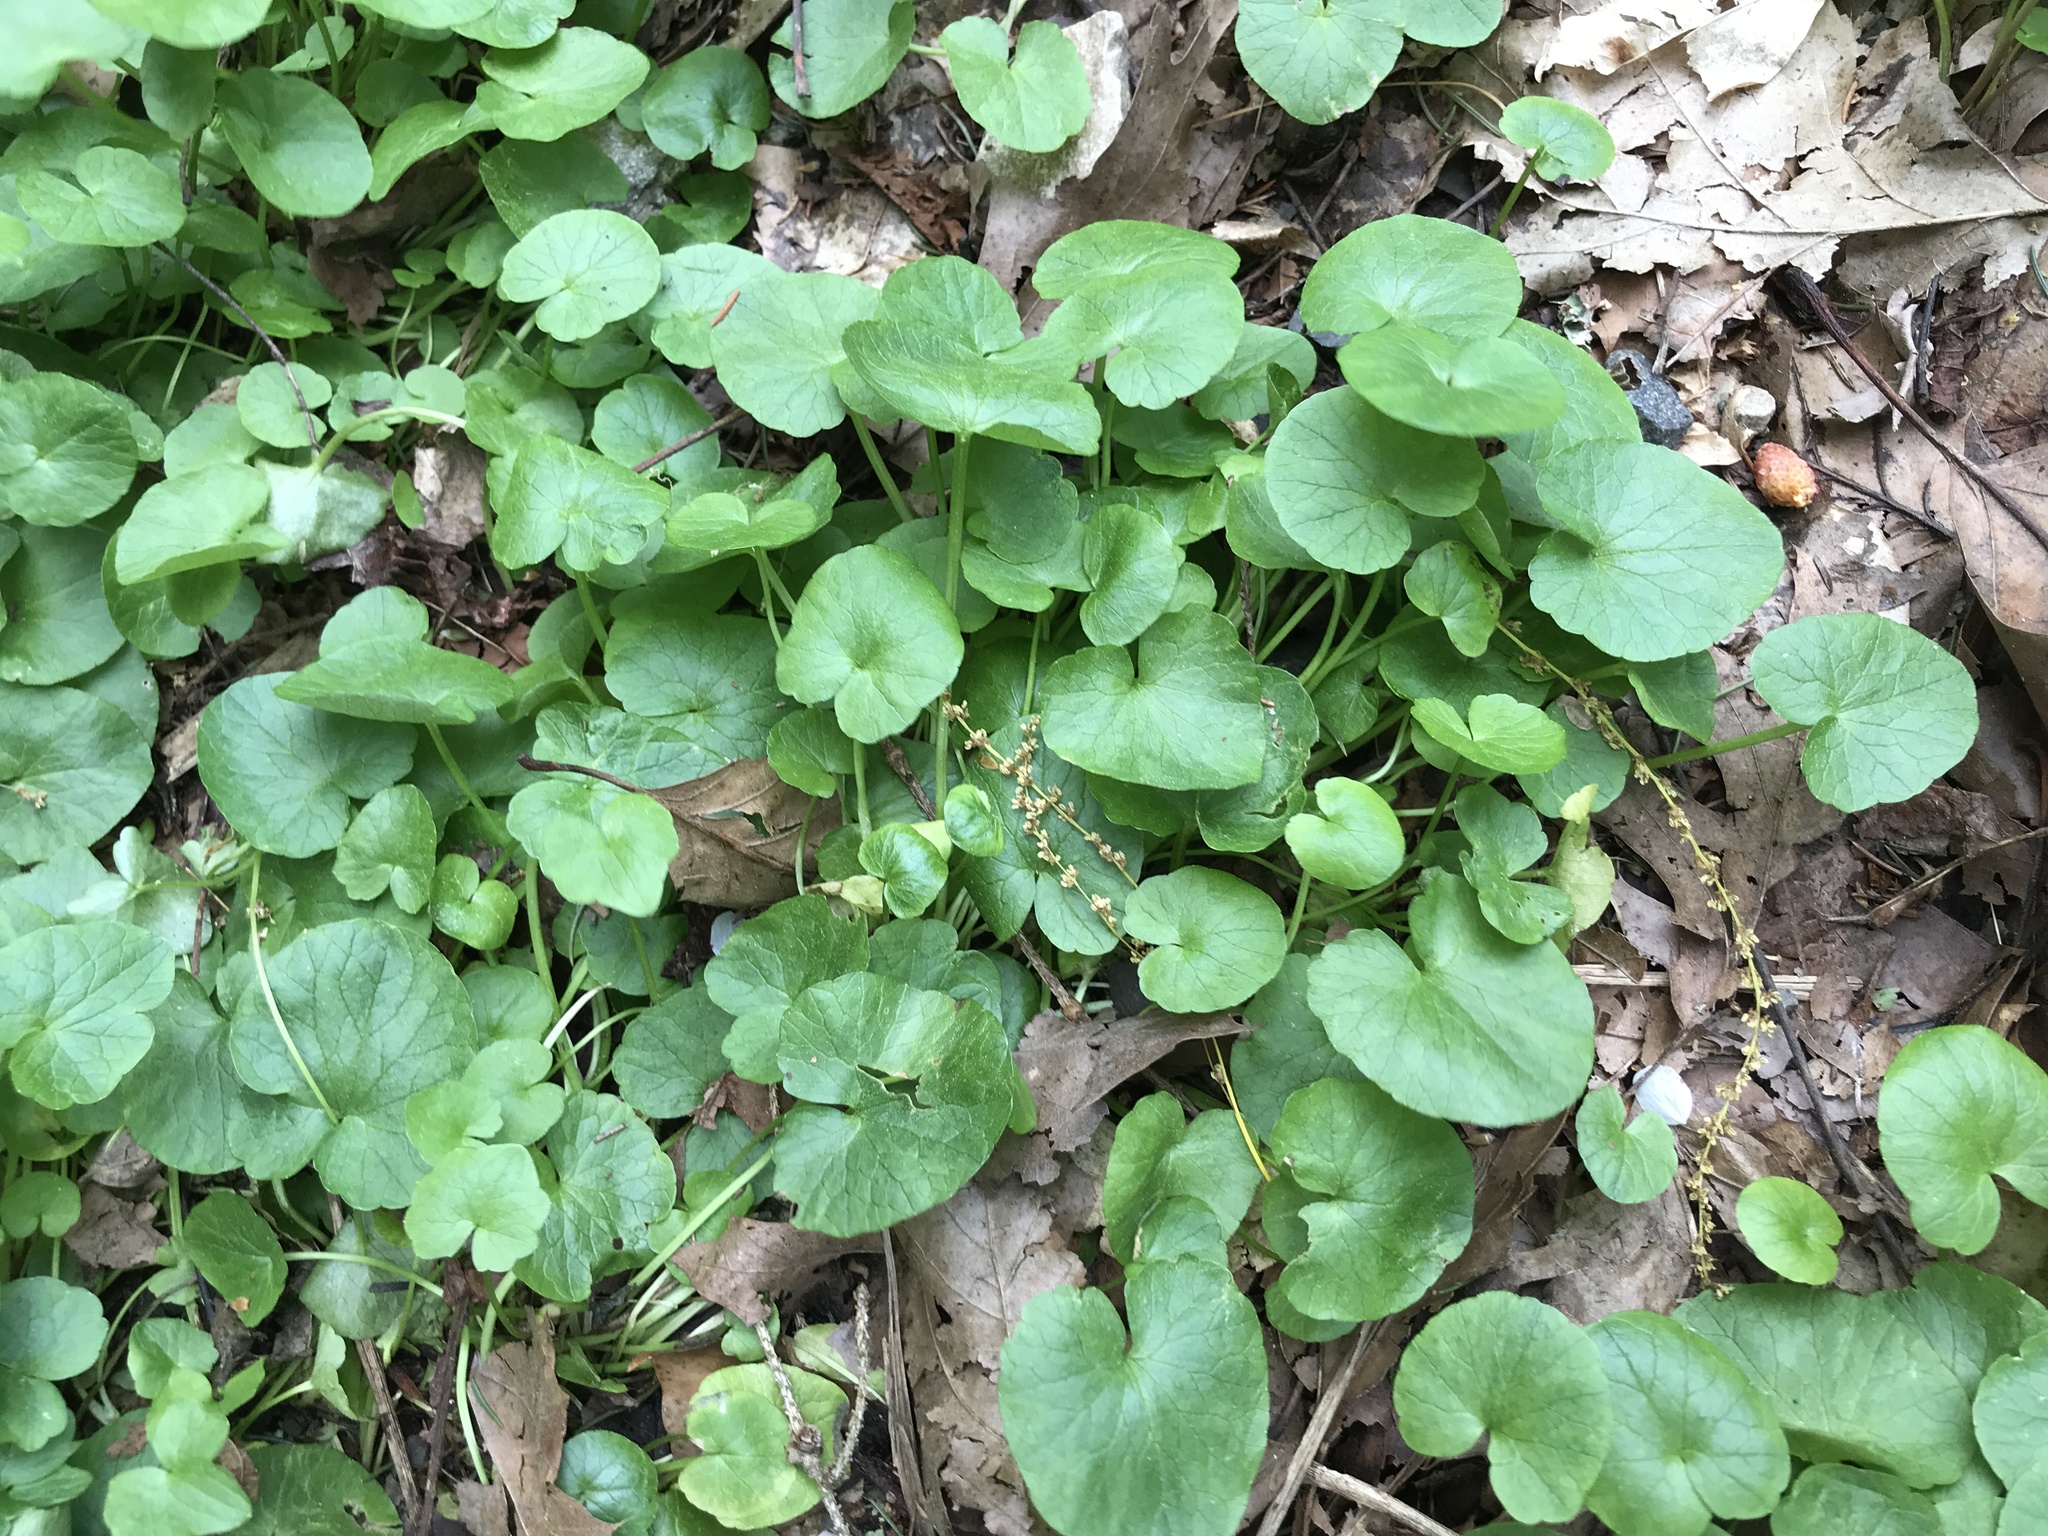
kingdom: Plantae
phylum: Tracheophyta
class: Magnoliopsida
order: Ranunculales
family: Ranunculaceae
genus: Ficaria
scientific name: Ficaria verna
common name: Lesser celandine
